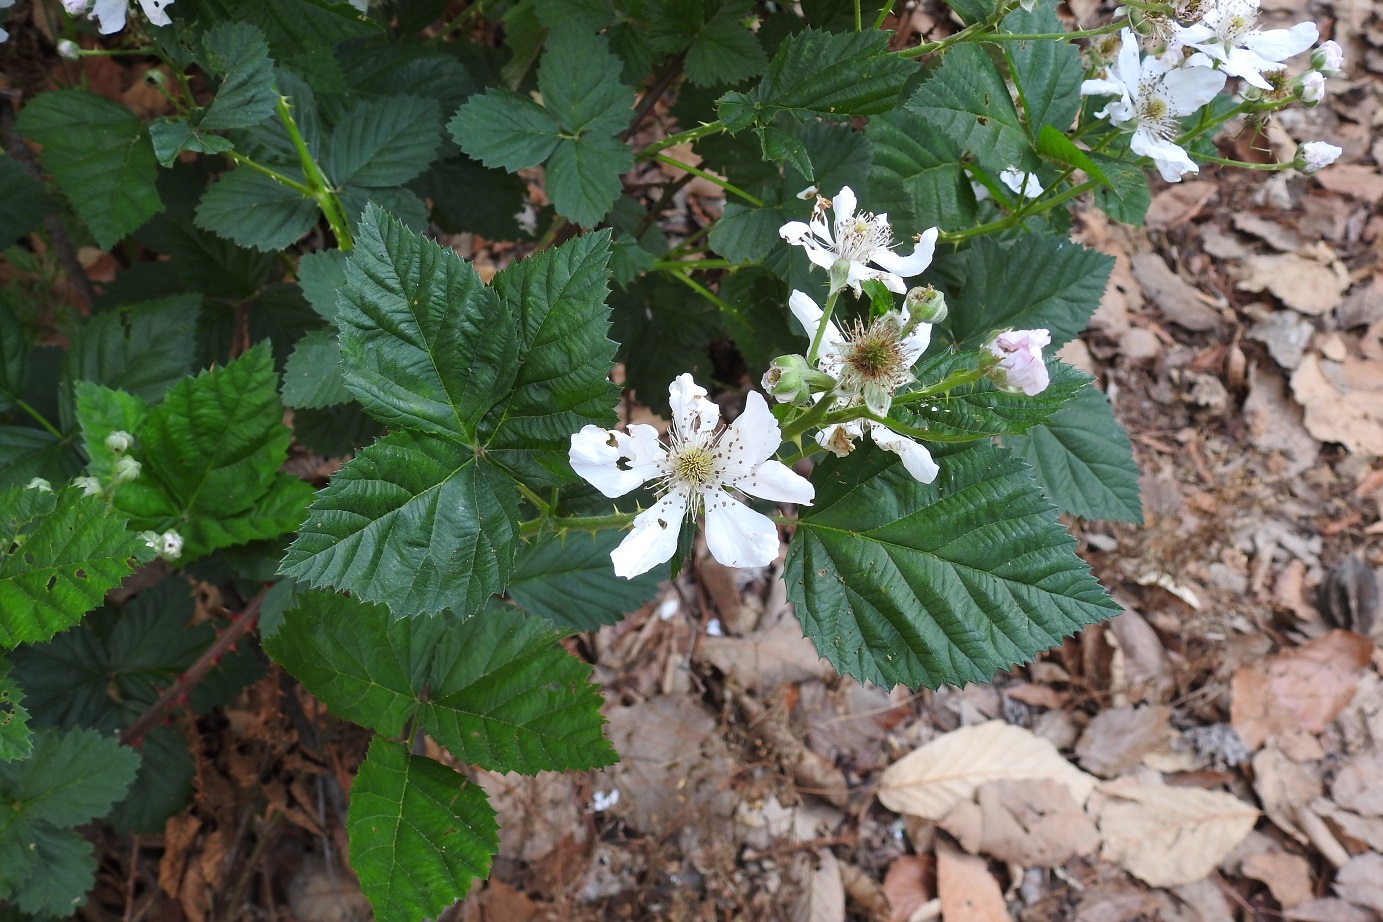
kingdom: Plantae
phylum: Tracheophyta
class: Magnoliopsida
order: Rosales
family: Rosaceae
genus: Rubus
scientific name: Rubus adenotrichos
